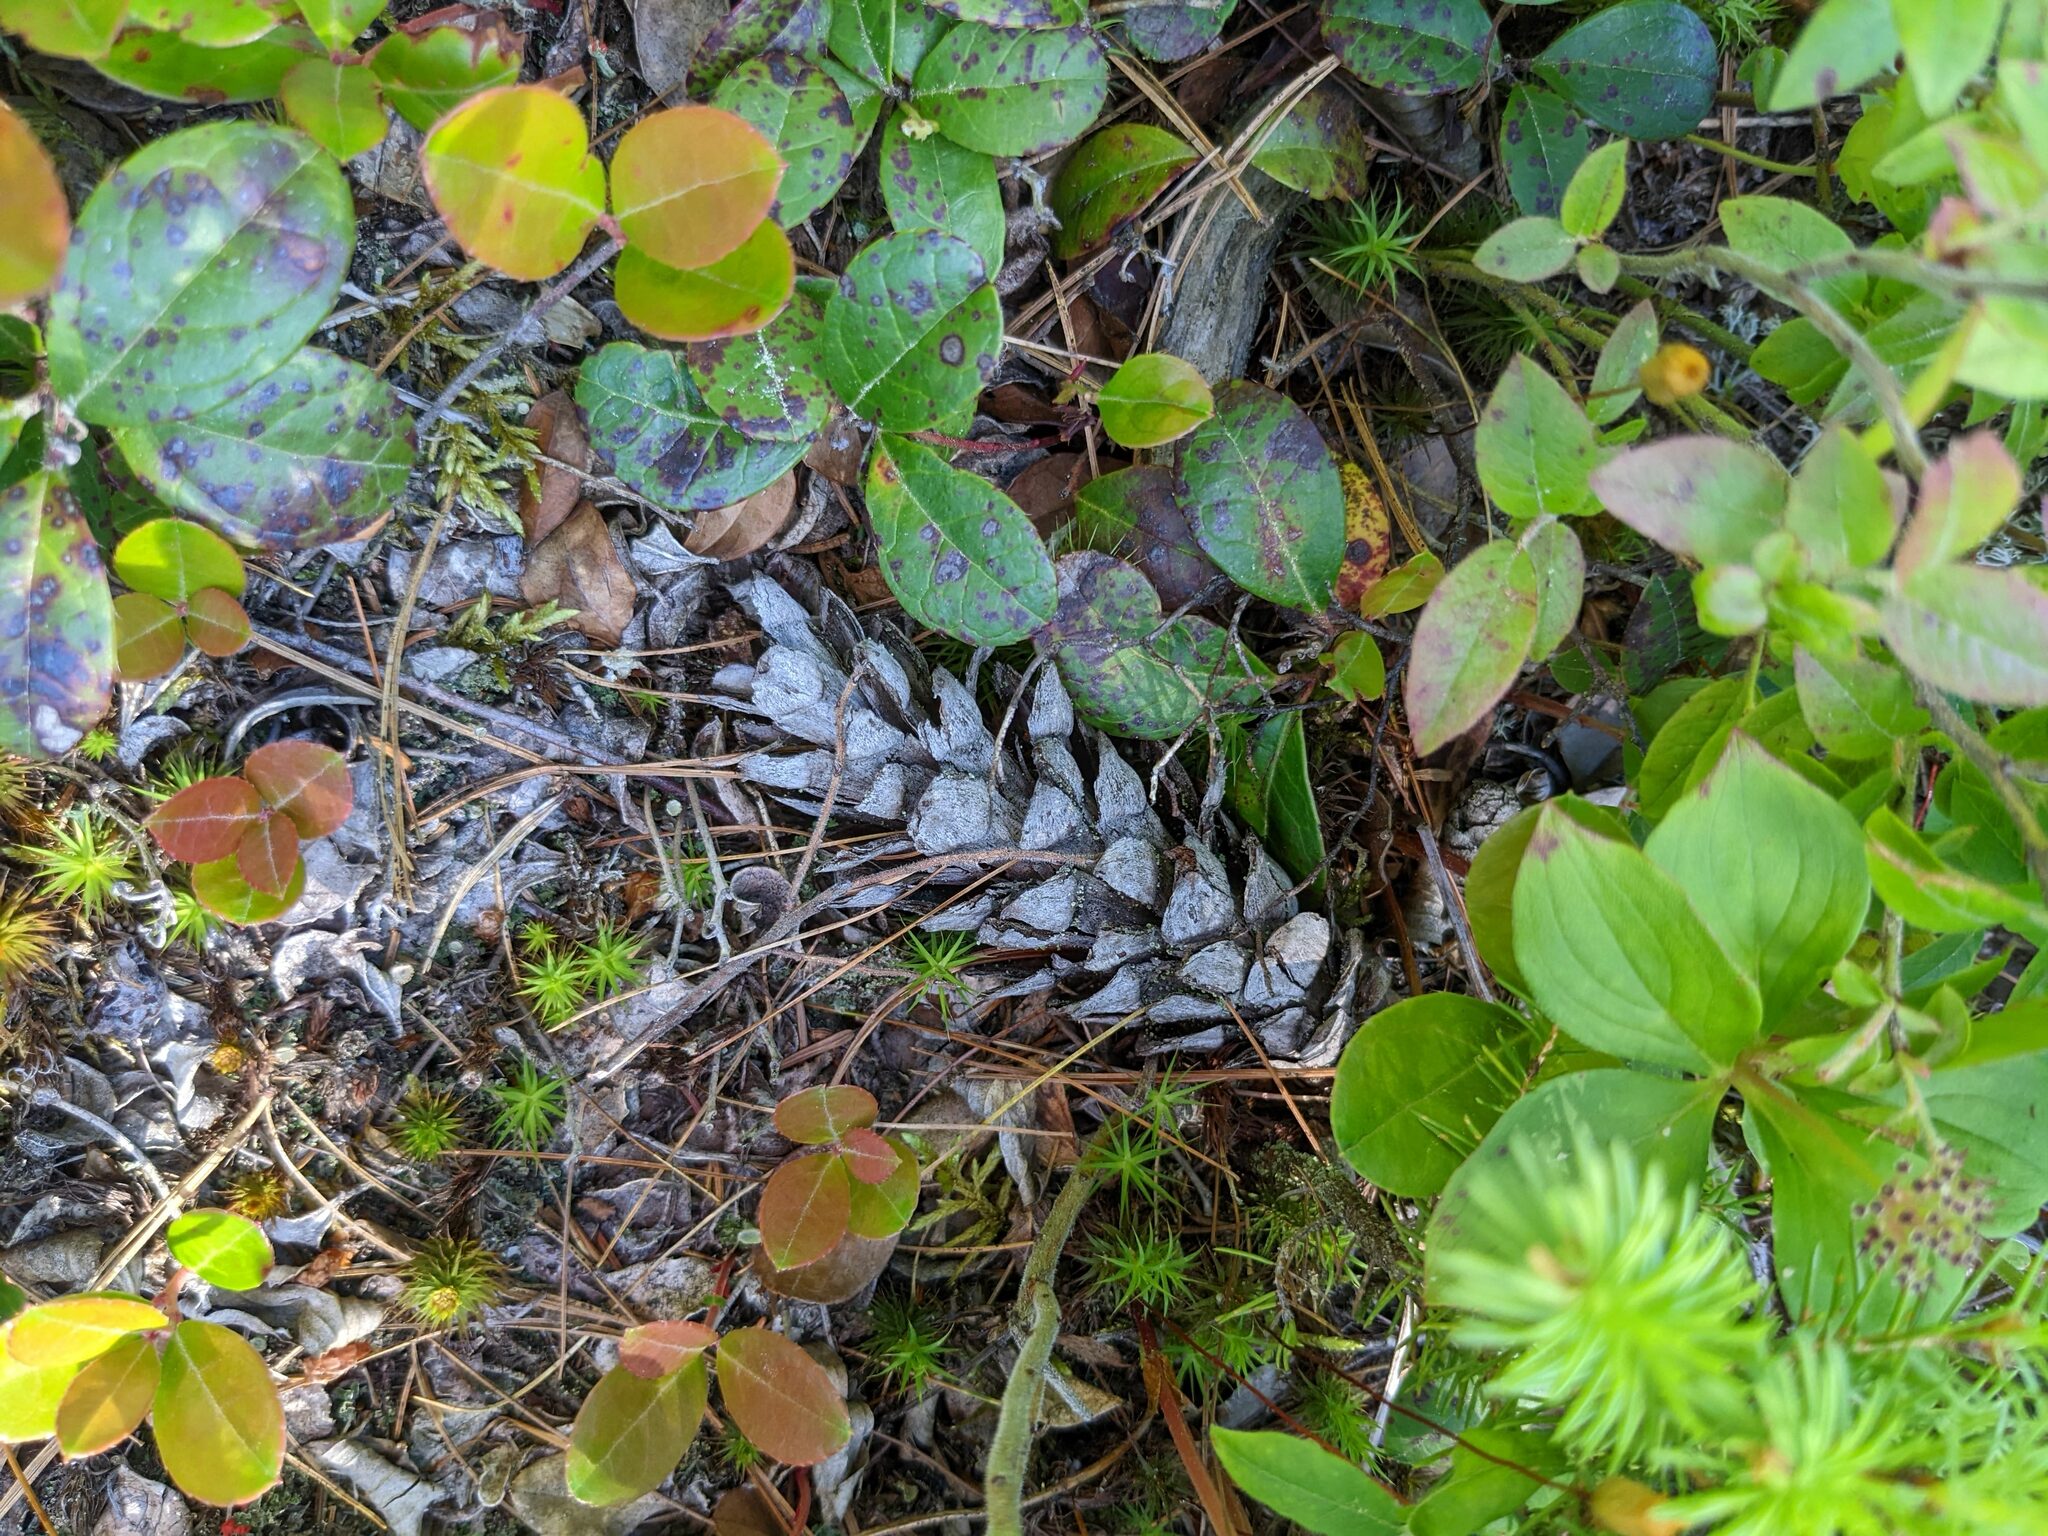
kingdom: Plantae
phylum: Tracheophyta
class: Magnoliopsida
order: Ericales
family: Ericaceae
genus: Gaultheria
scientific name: Gaultheria procumbens
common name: Checkerberry
